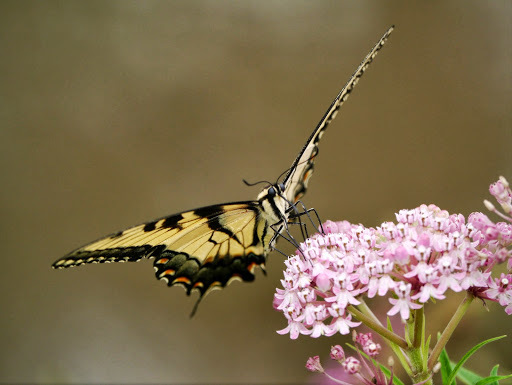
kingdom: Animalia
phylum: Arthropoda
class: Insecta
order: Lepidoptera
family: Papilionidae
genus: Papilio
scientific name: Papilio glaucus
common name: Tiger swallowtail
